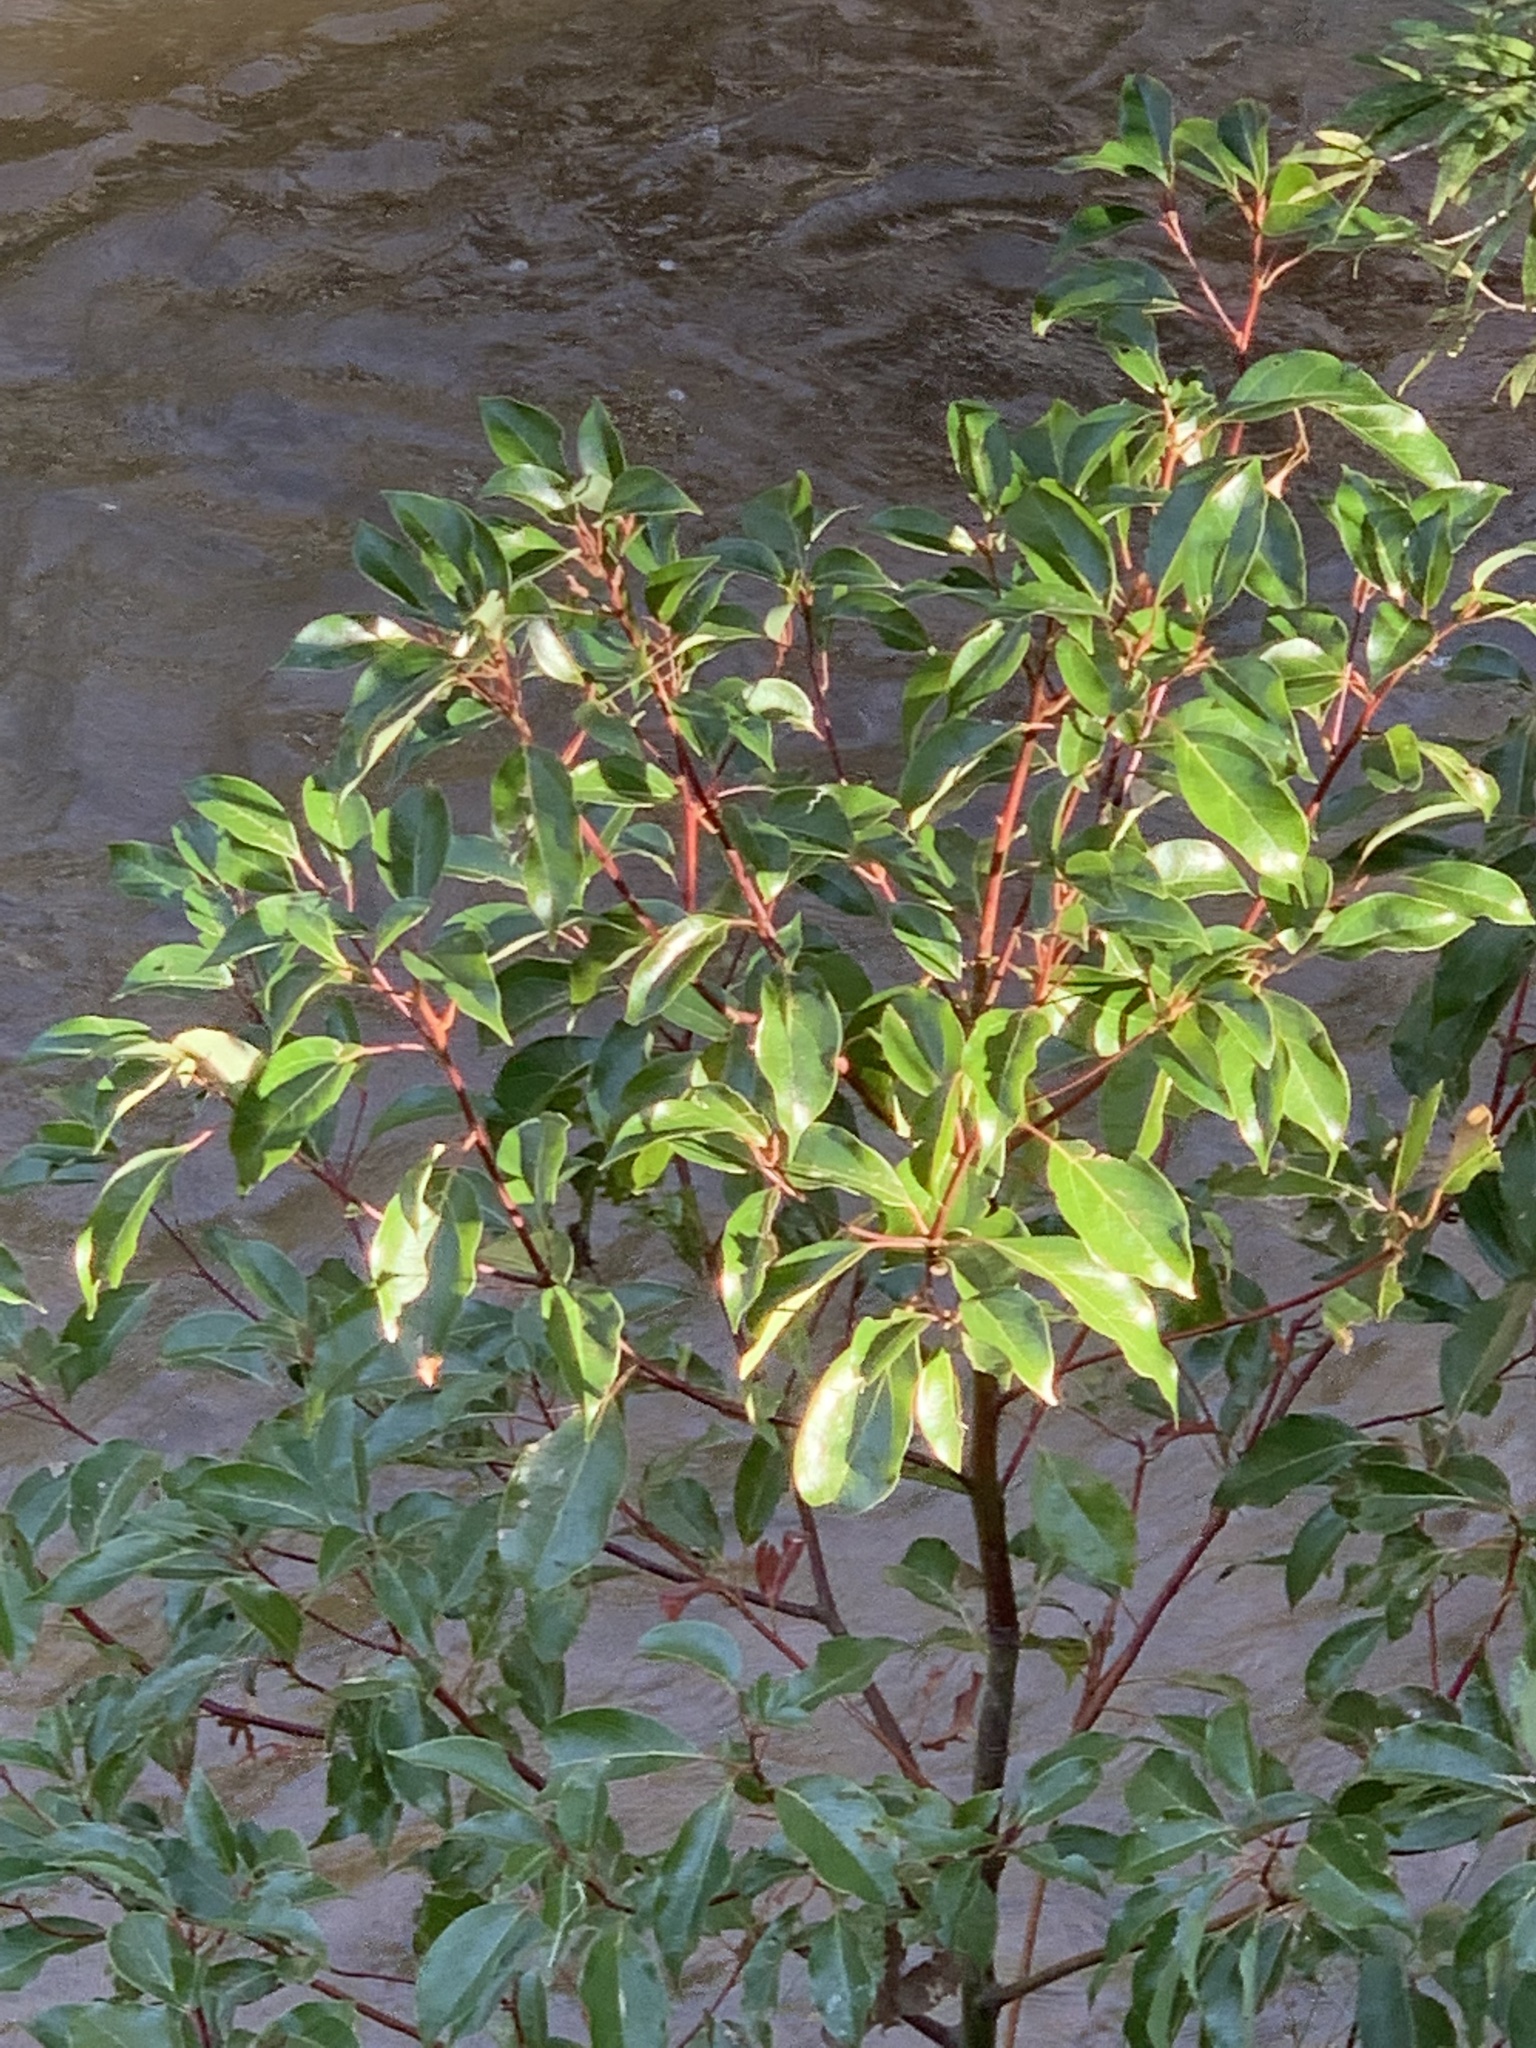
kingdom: Plantae
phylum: Tracheophyta
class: Magnoliopsida
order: Laurales
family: Lauraceae
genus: Cinnamomum
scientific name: Cinnamomum camphora
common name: Camphortree
